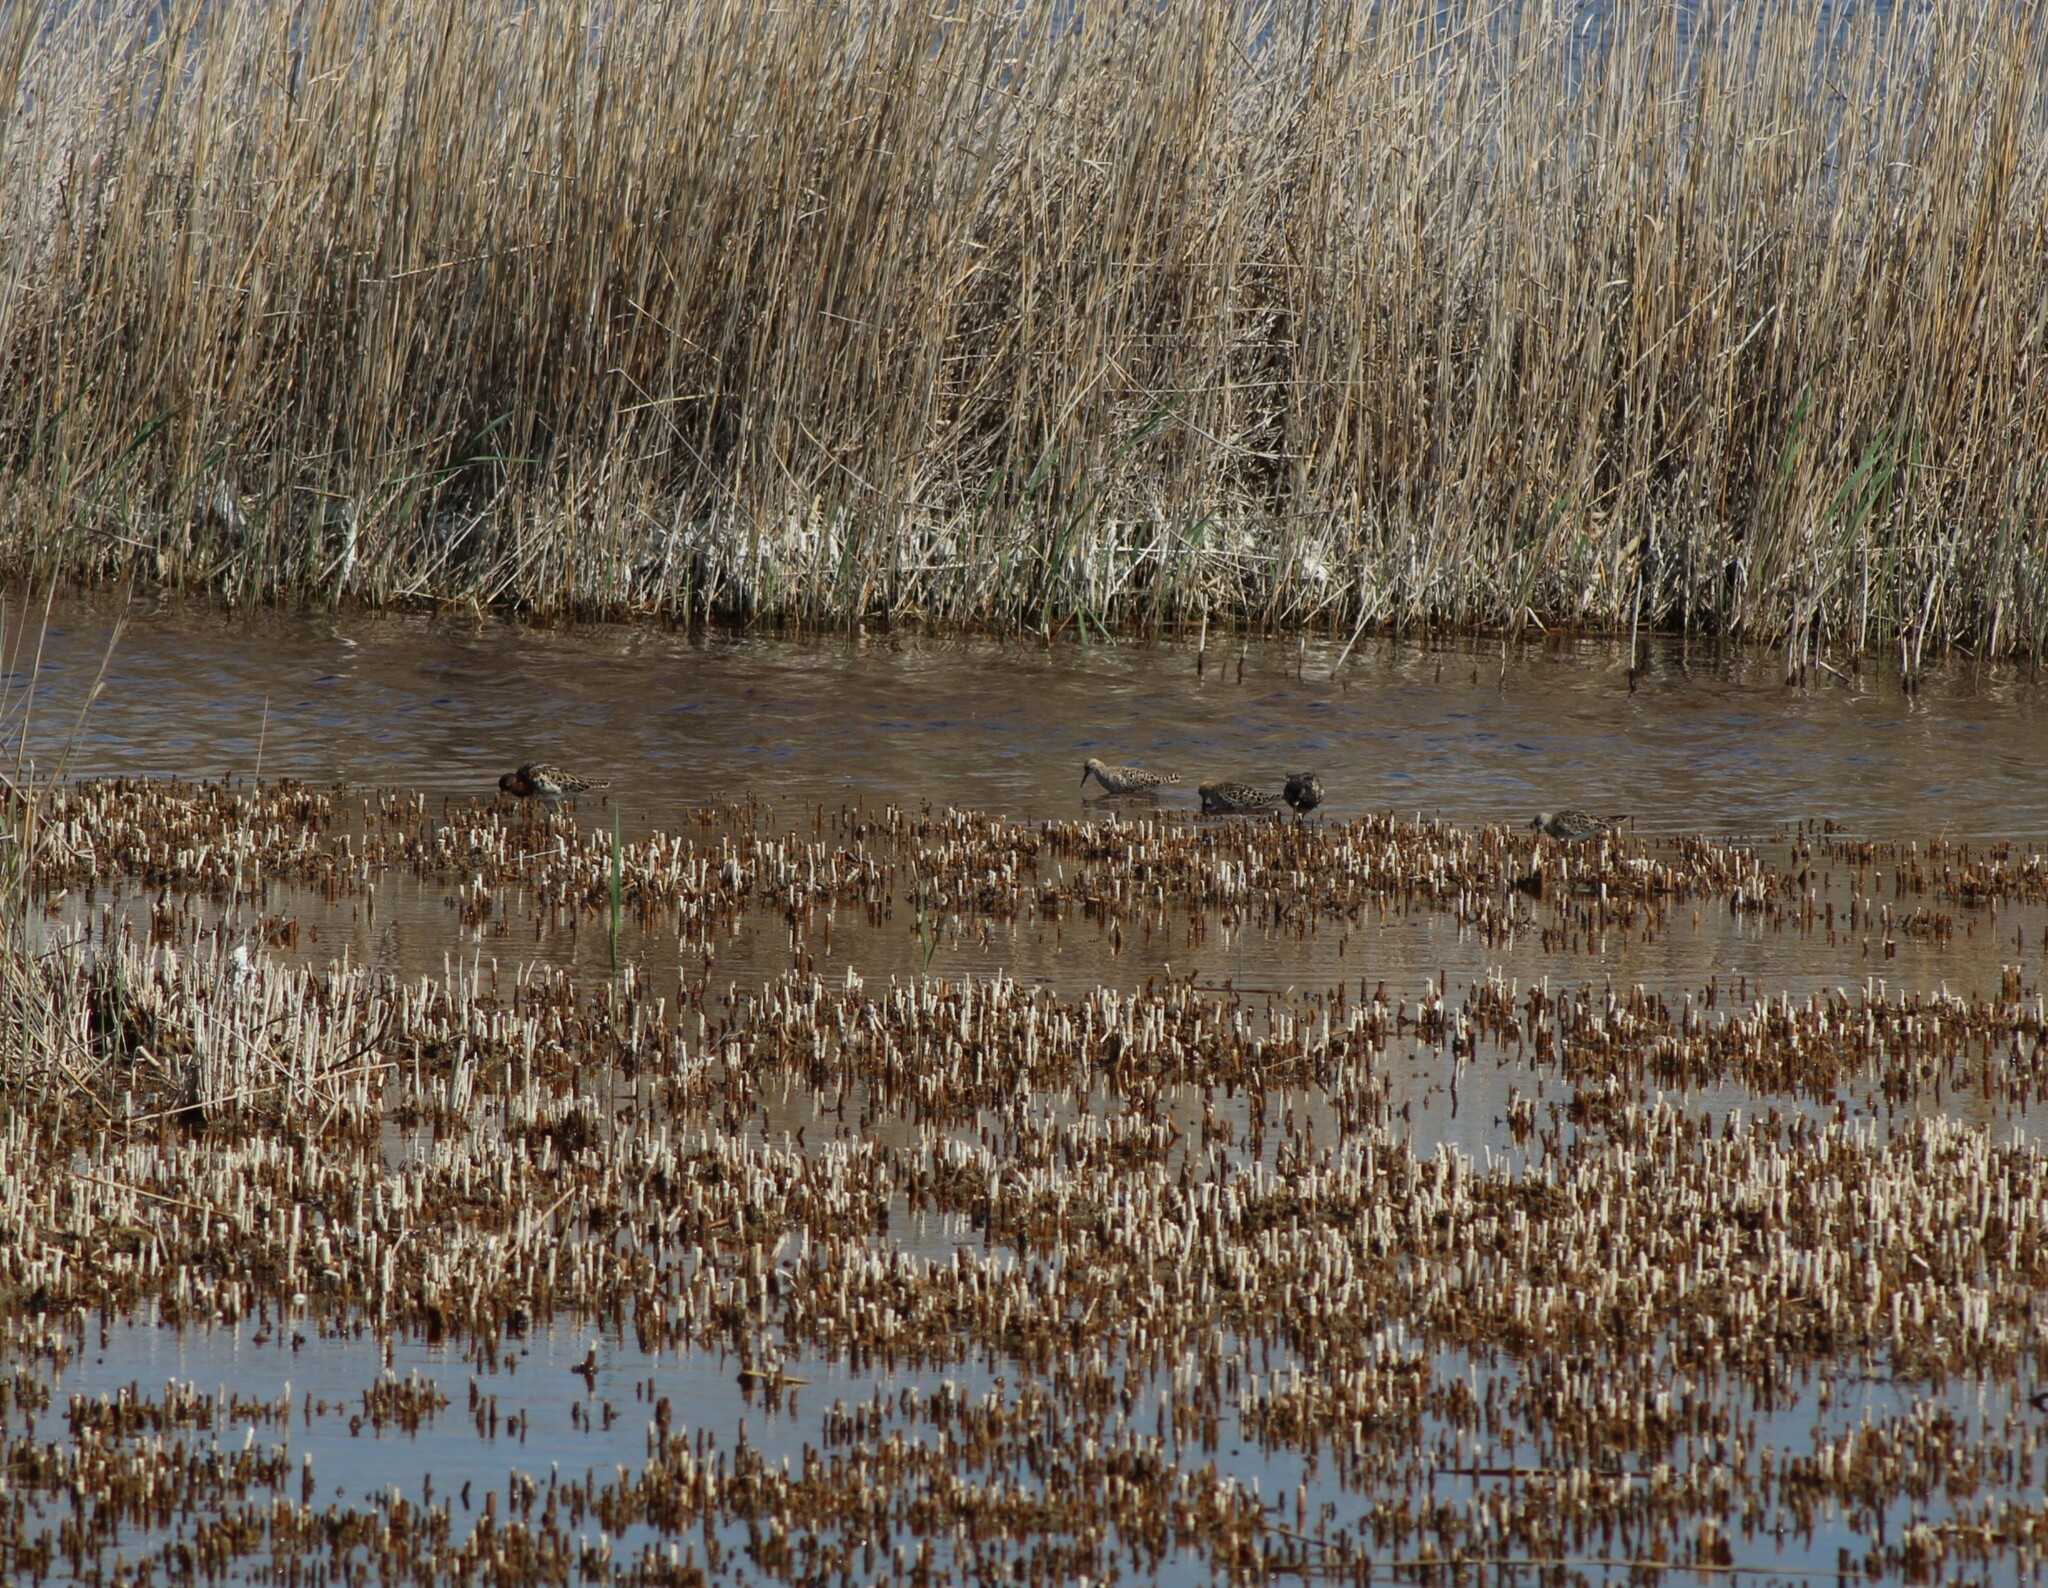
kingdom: Animalia
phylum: Chordata
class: Aves
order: Charadriiformes
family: Scolopacidae
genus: Calidris
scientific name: Calidris pugnax
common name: Ruff
